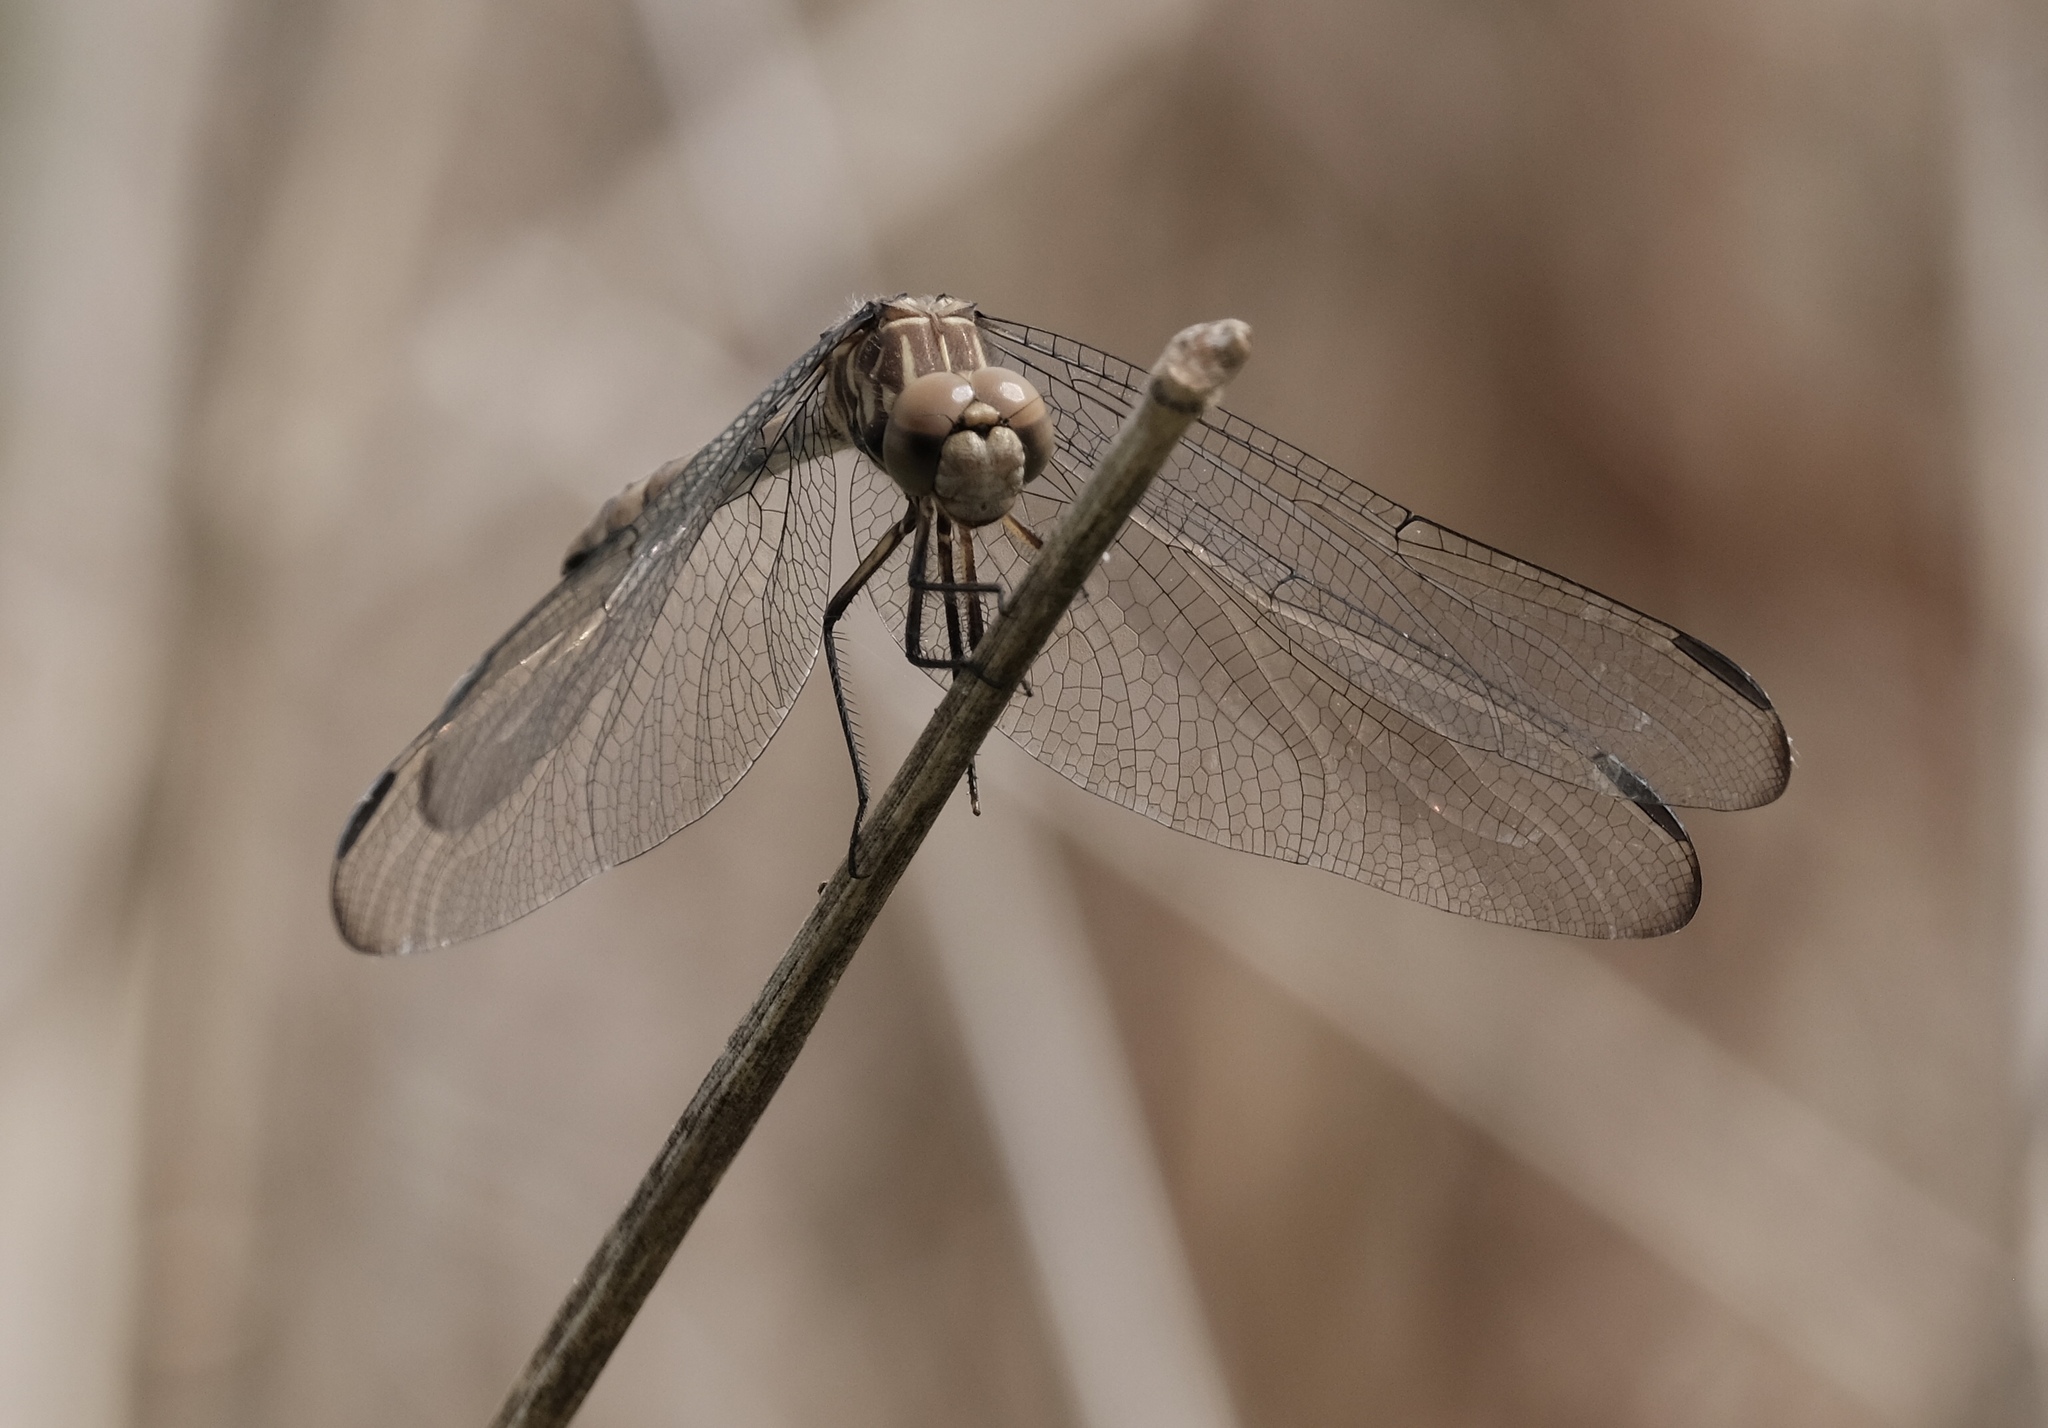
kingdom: Animalia
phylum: Arthropoda
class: Insecta
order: Odonata
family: Libellulidae
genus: Dythemis
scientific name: Dythemis nigrescens
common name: Black setwing
